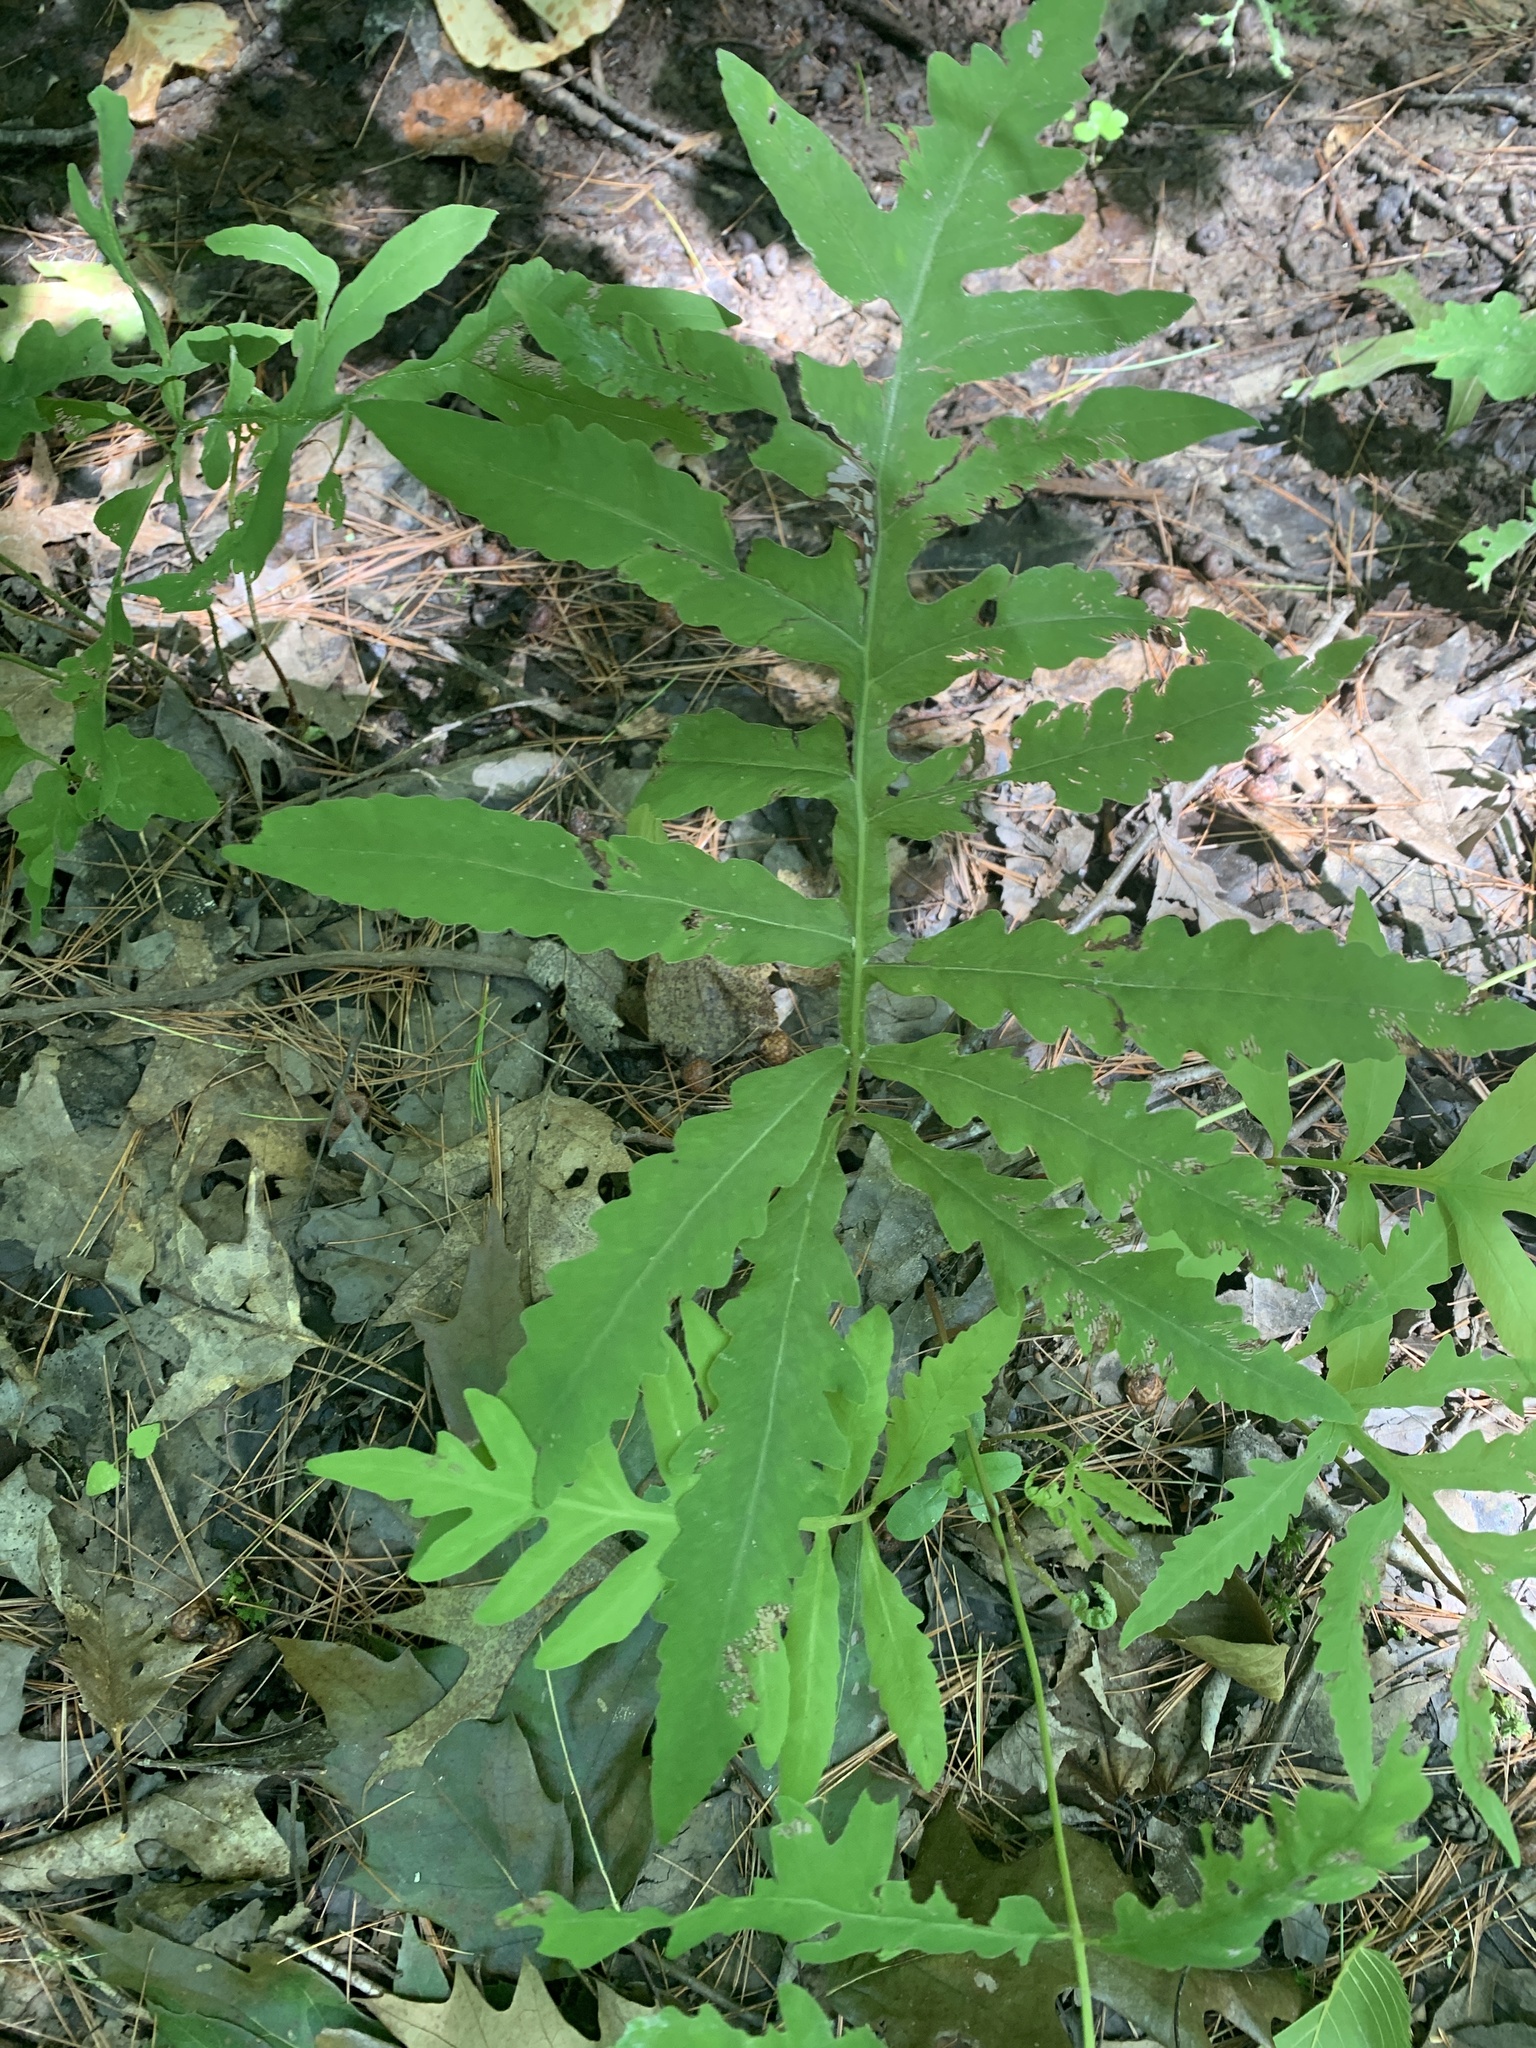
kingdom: Plantae
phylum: Tracheophyta
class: Polypodiopsida
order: Polypodiales
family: Onocleaceae
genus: Onoclea
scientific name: Onoclea sensibilis
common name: Sensitive fern
